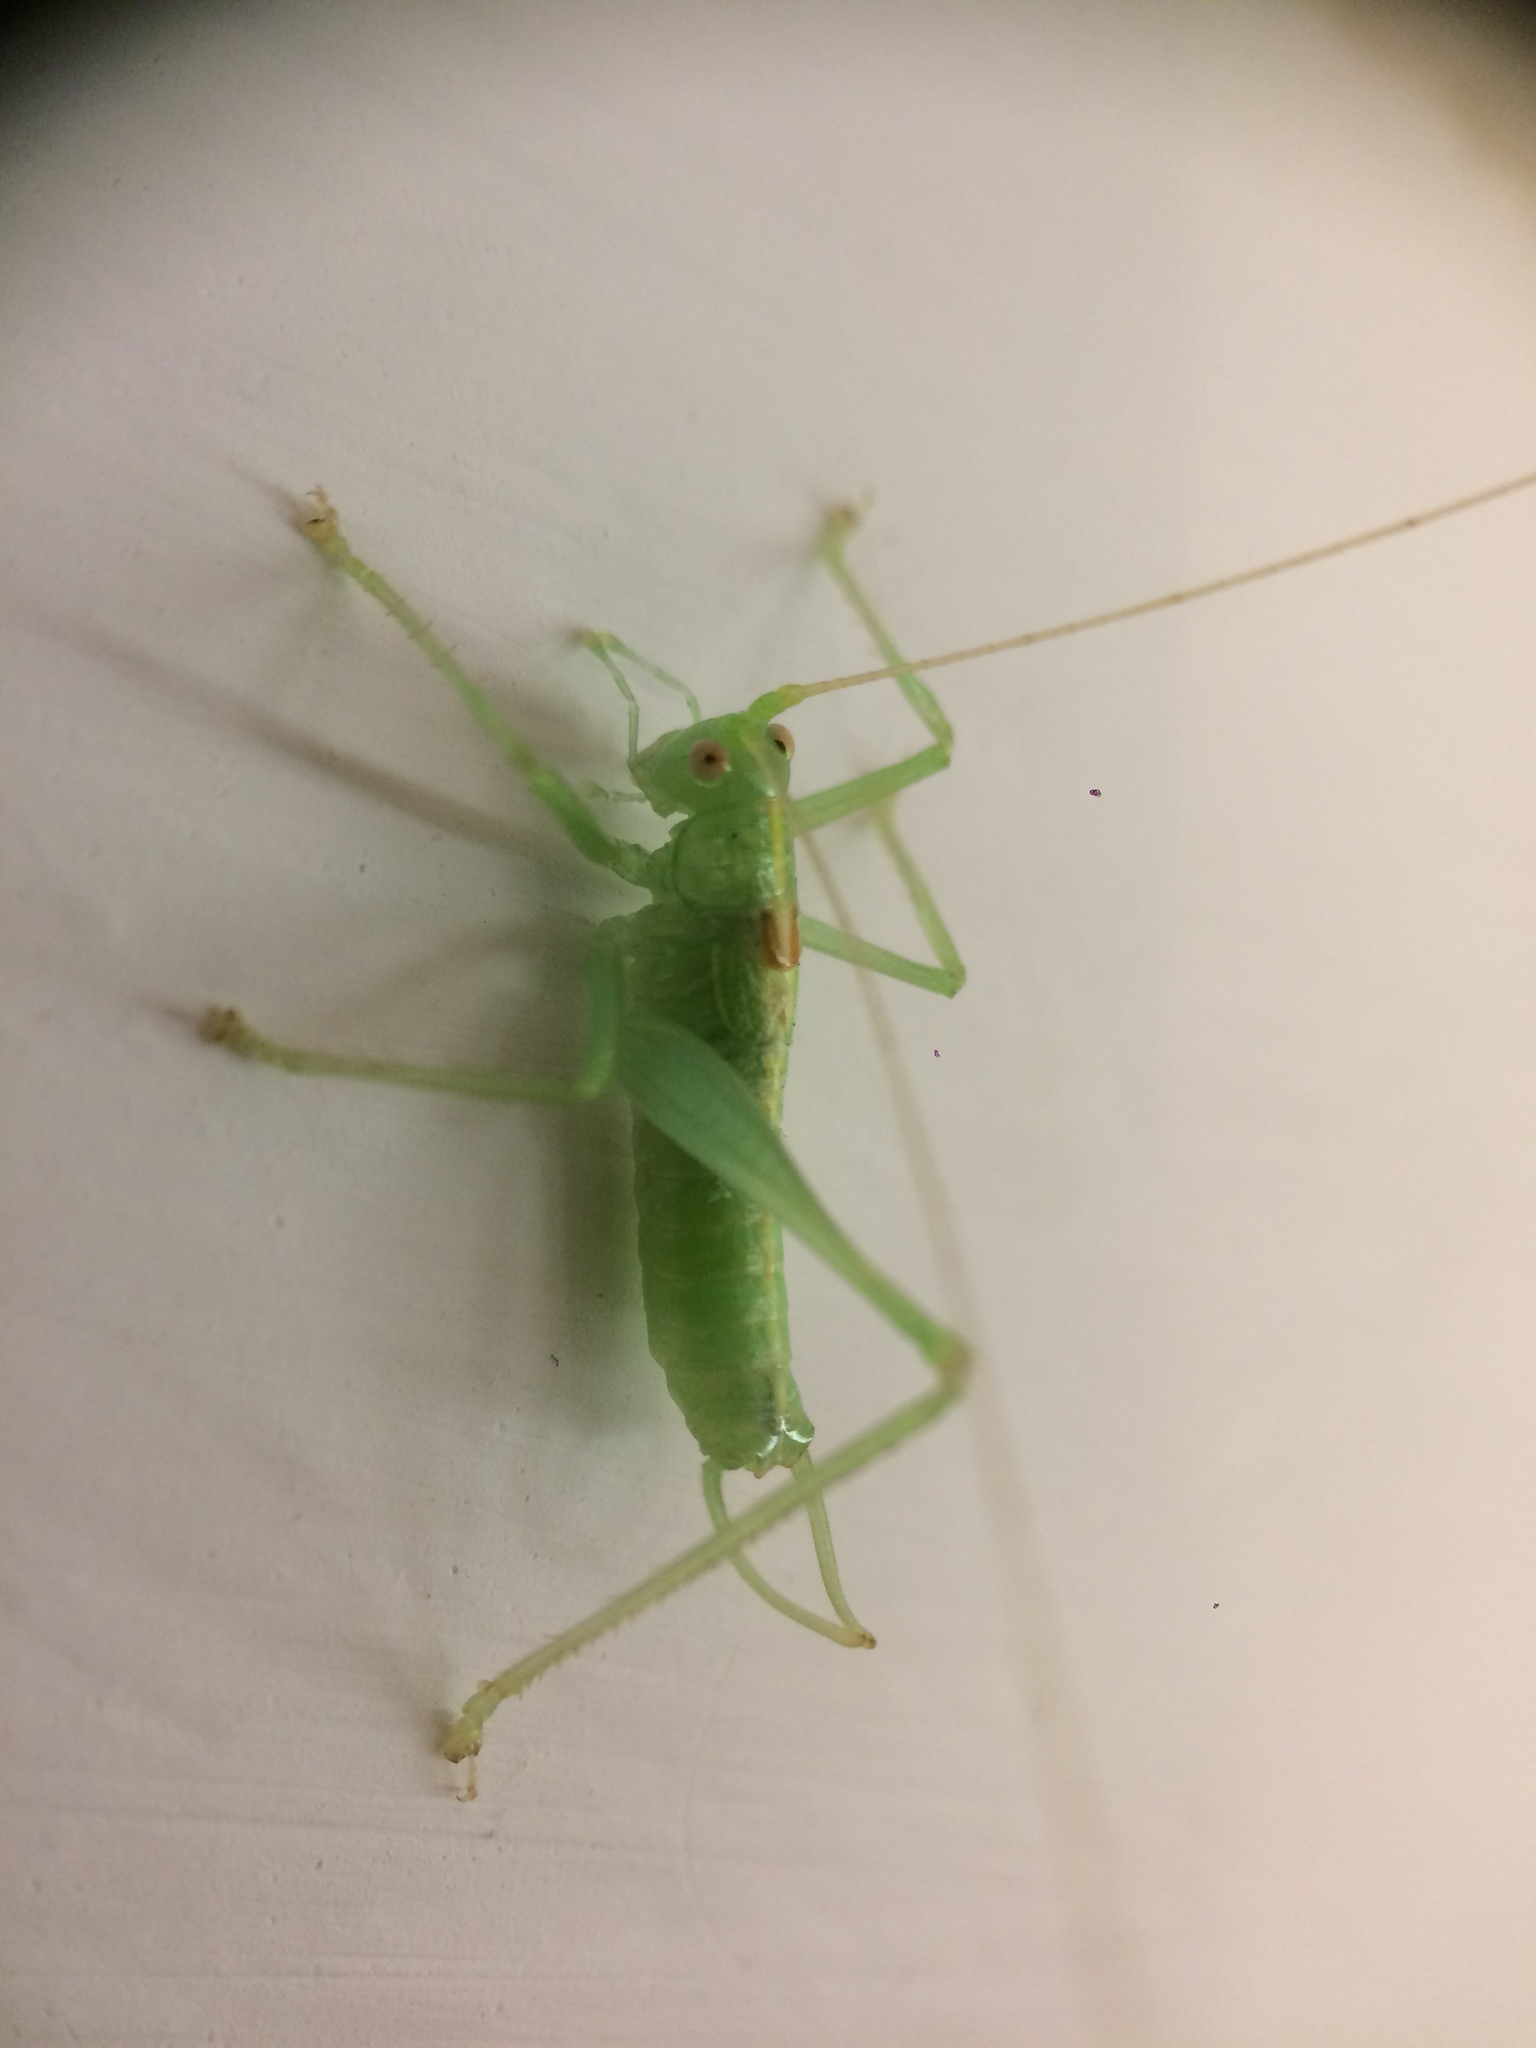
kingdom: Animalia
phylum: Arthropoda
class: Insecta
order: Orthoptera
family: Tettigoniidae
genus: Meconema
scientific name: Meconema meridionale
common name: Southern oak bush-cricket
